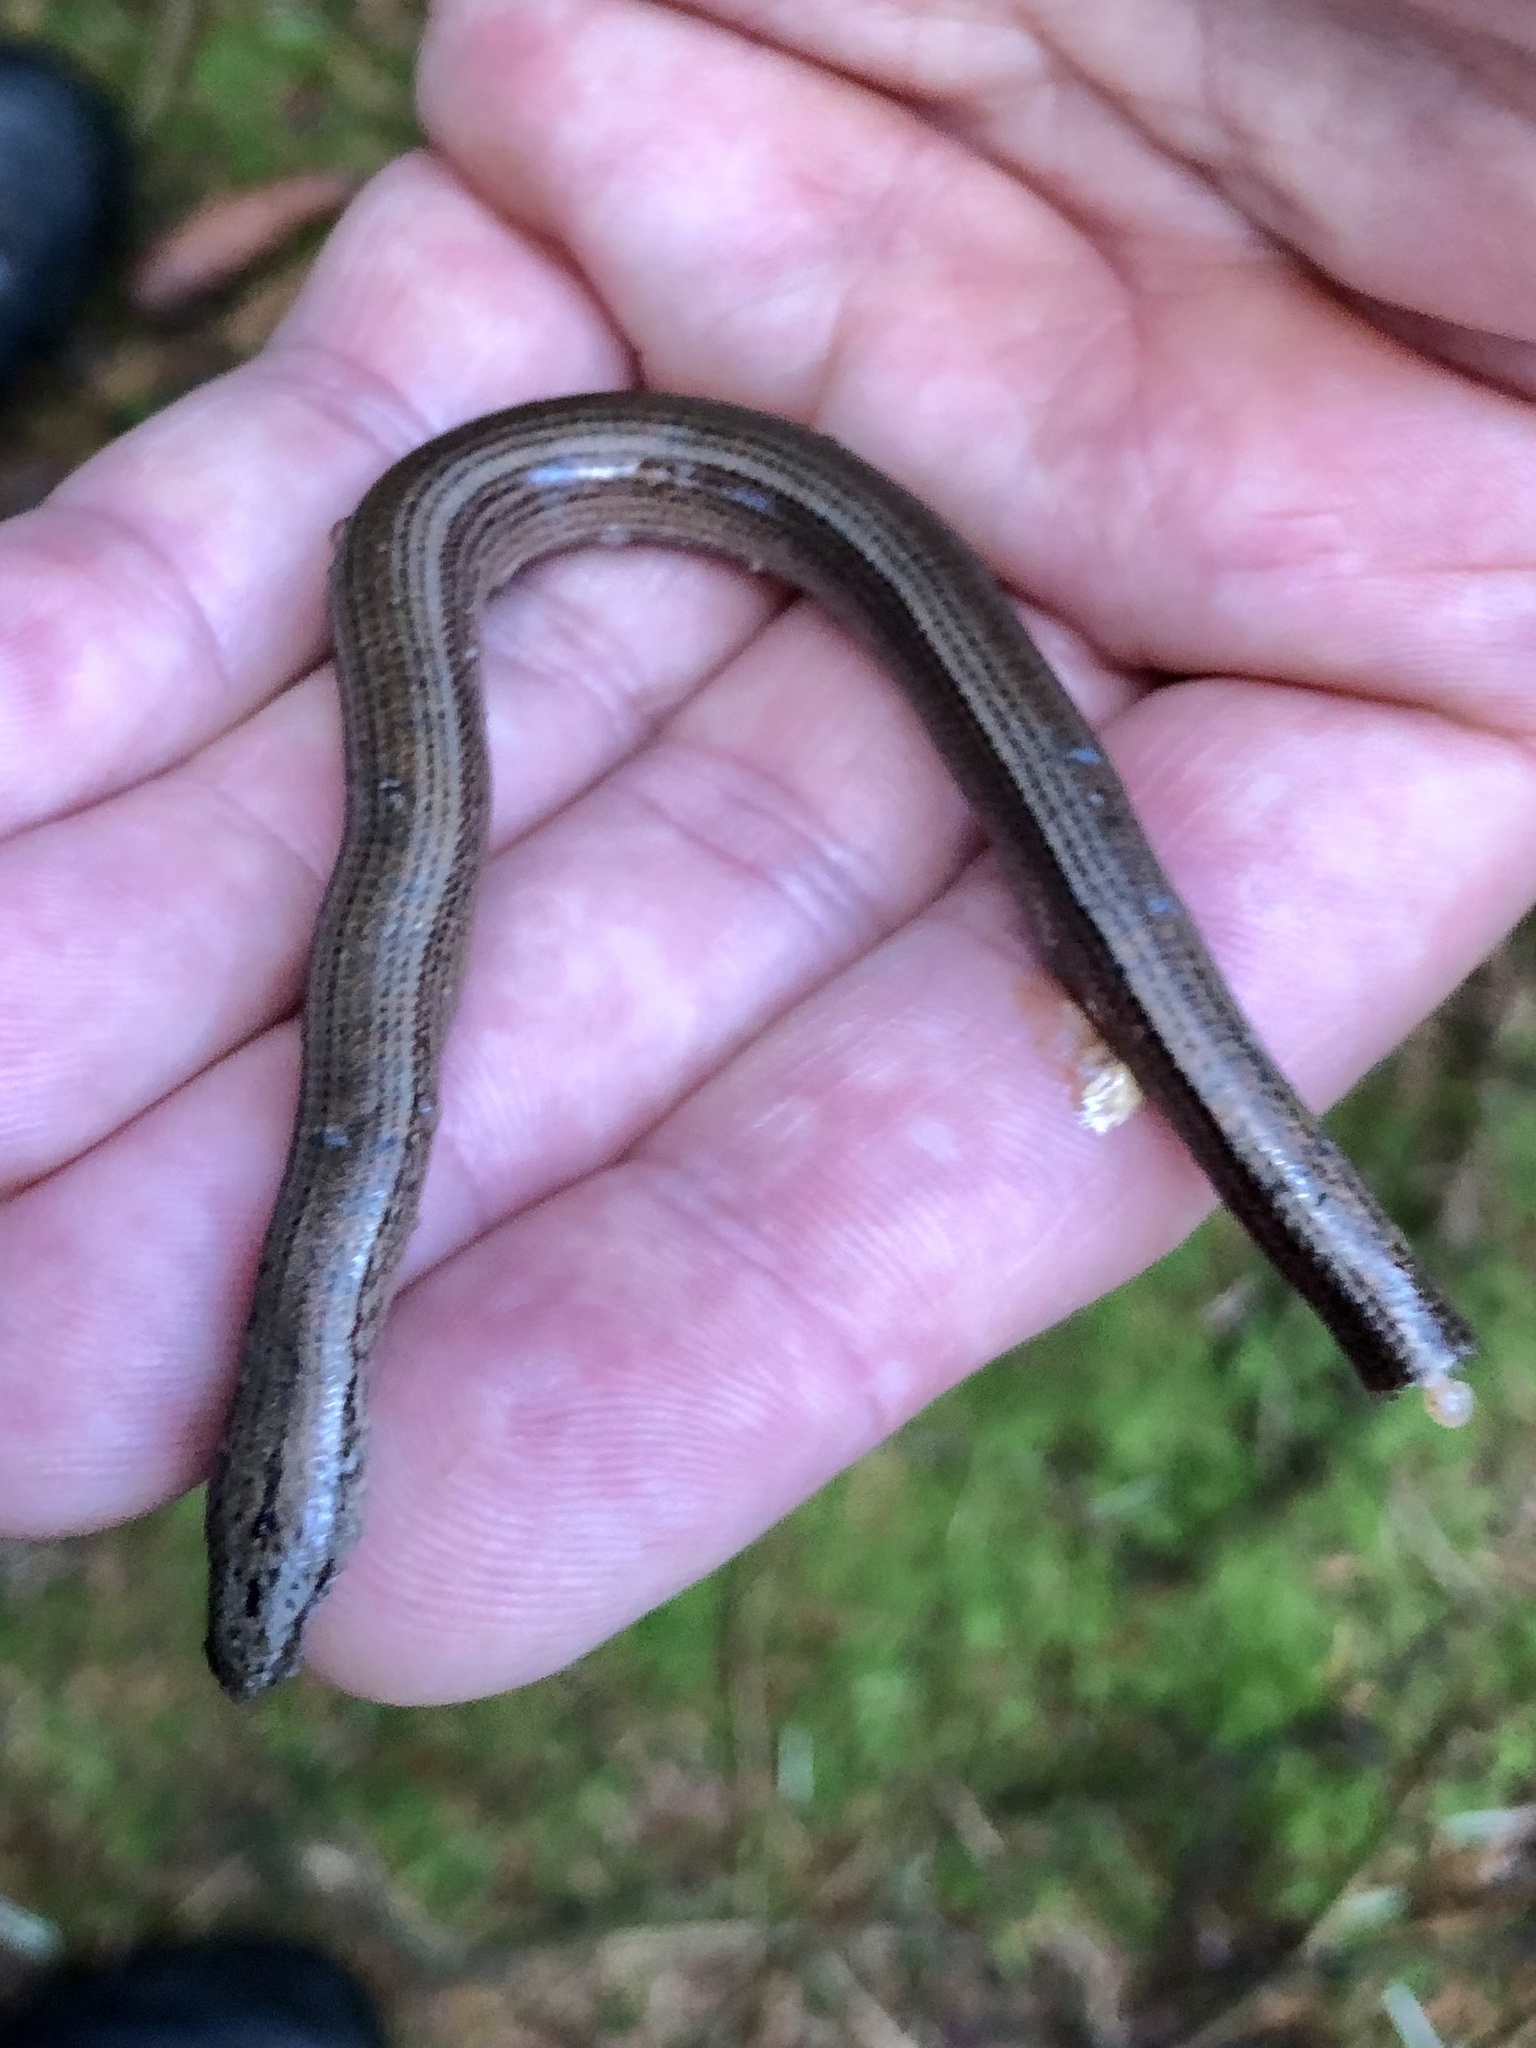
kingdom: Animalia
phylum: Chordata
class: Squamata
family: Anguidae
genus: Anguis
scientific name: Anguis fragilis
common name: Slow worm
